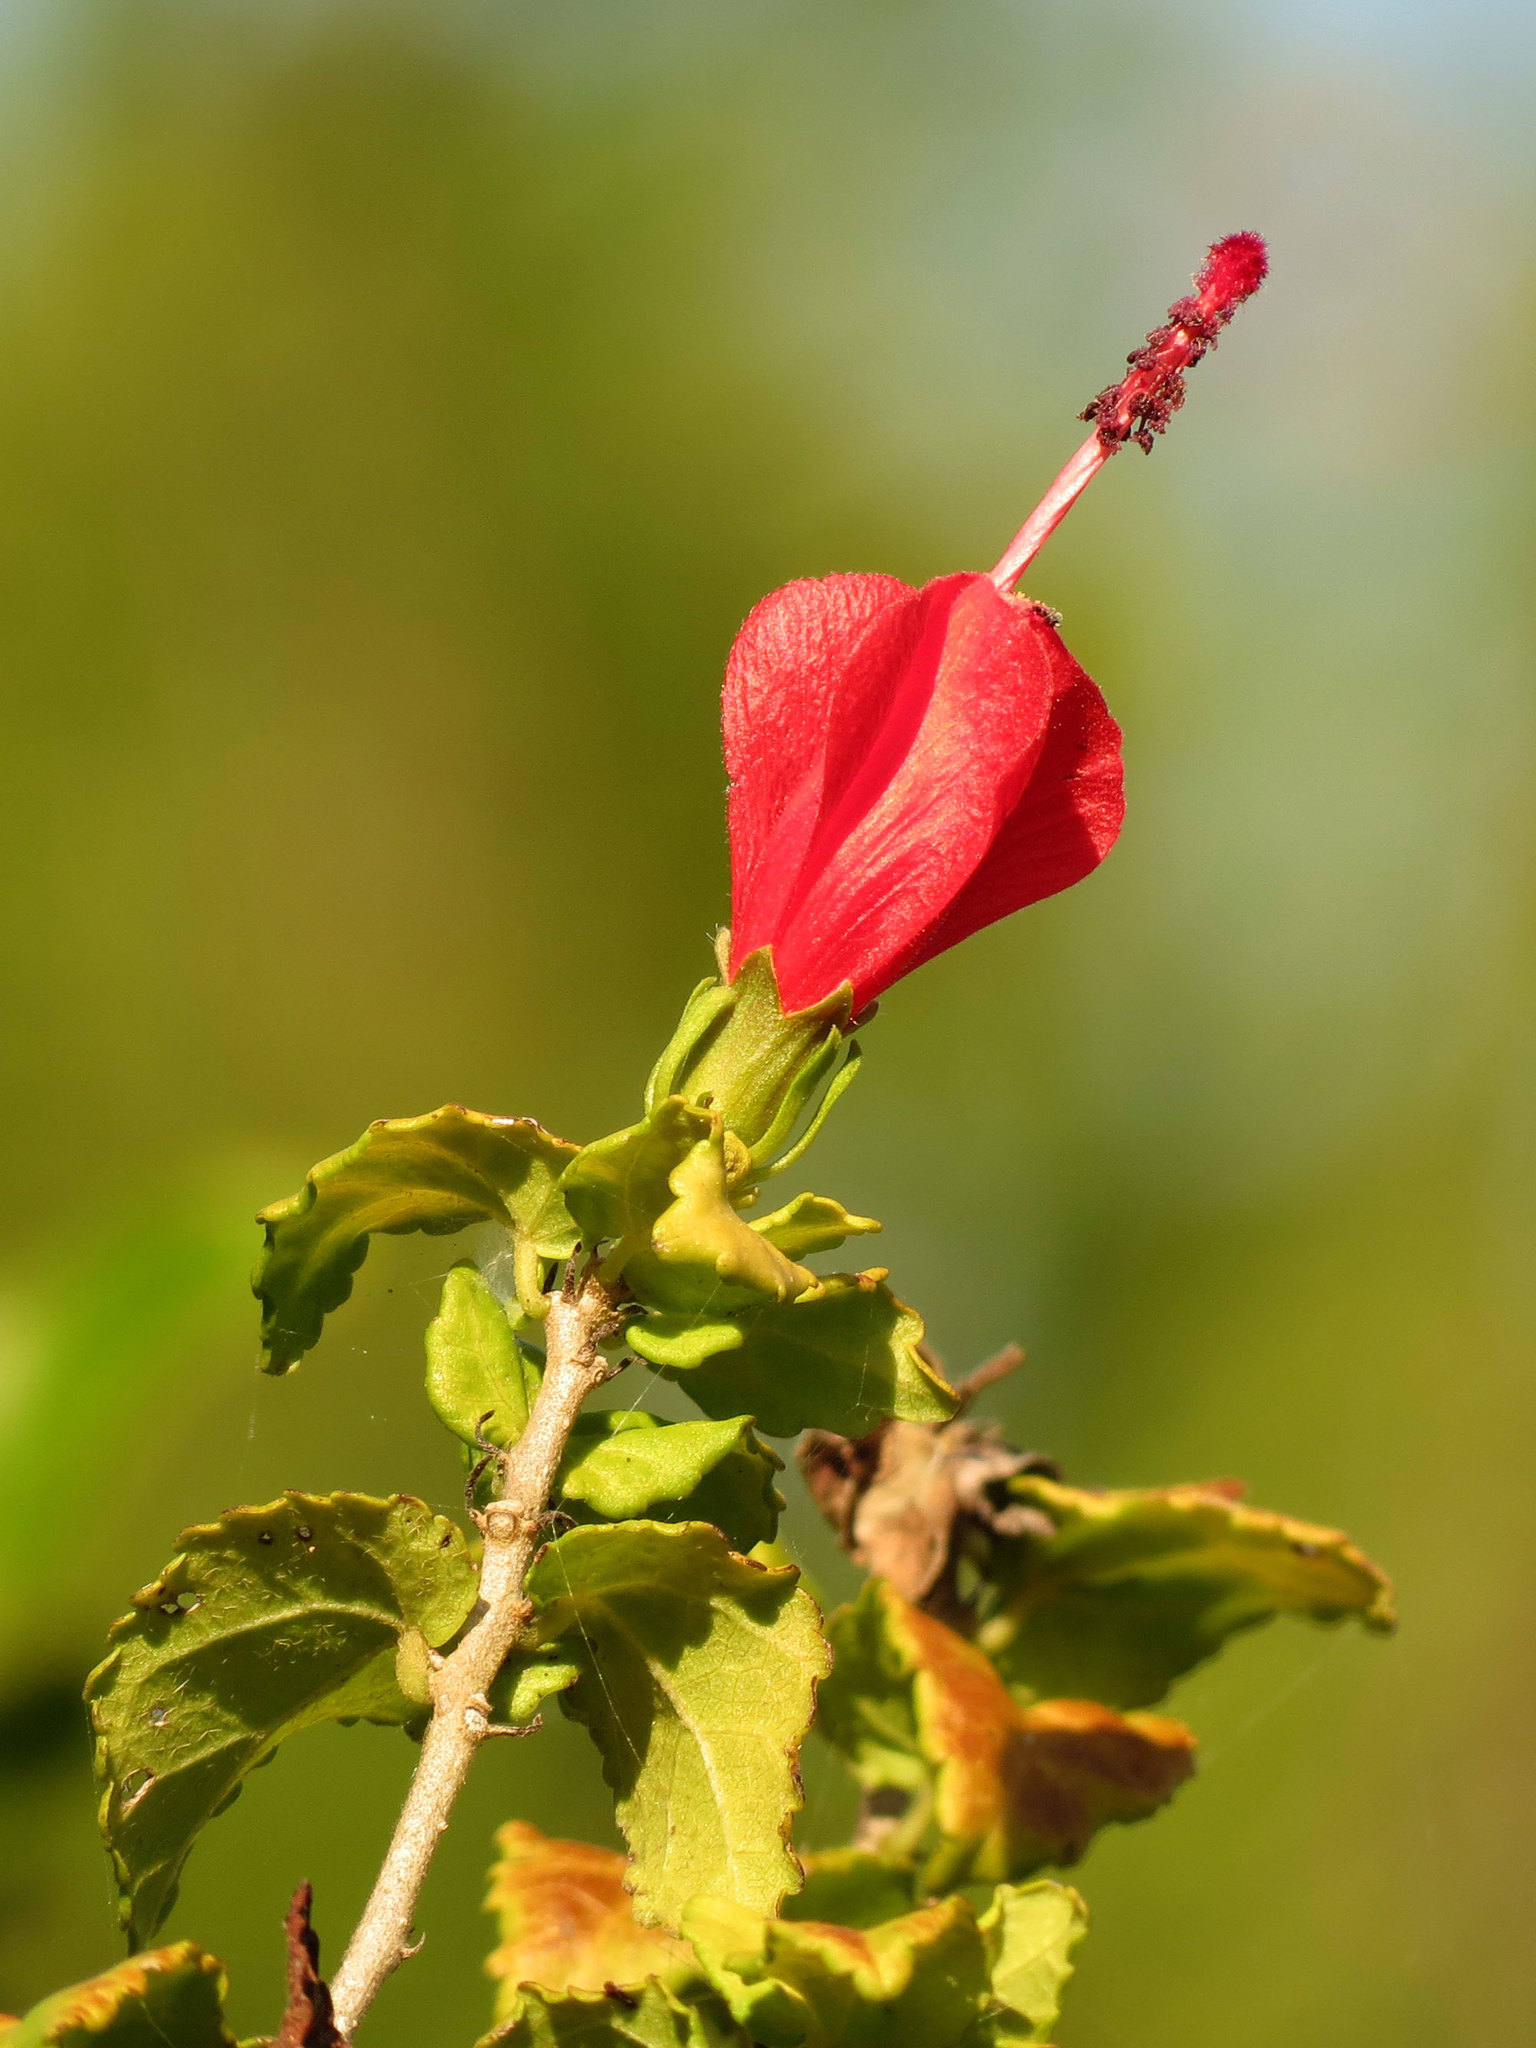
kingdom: Plantae
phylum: Tracheophyta
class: Magnoliopsida
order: Malvales
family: Malvaceae
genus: Malvaviscus
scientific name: Malvaviscus arboreus
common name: Wax mallow
